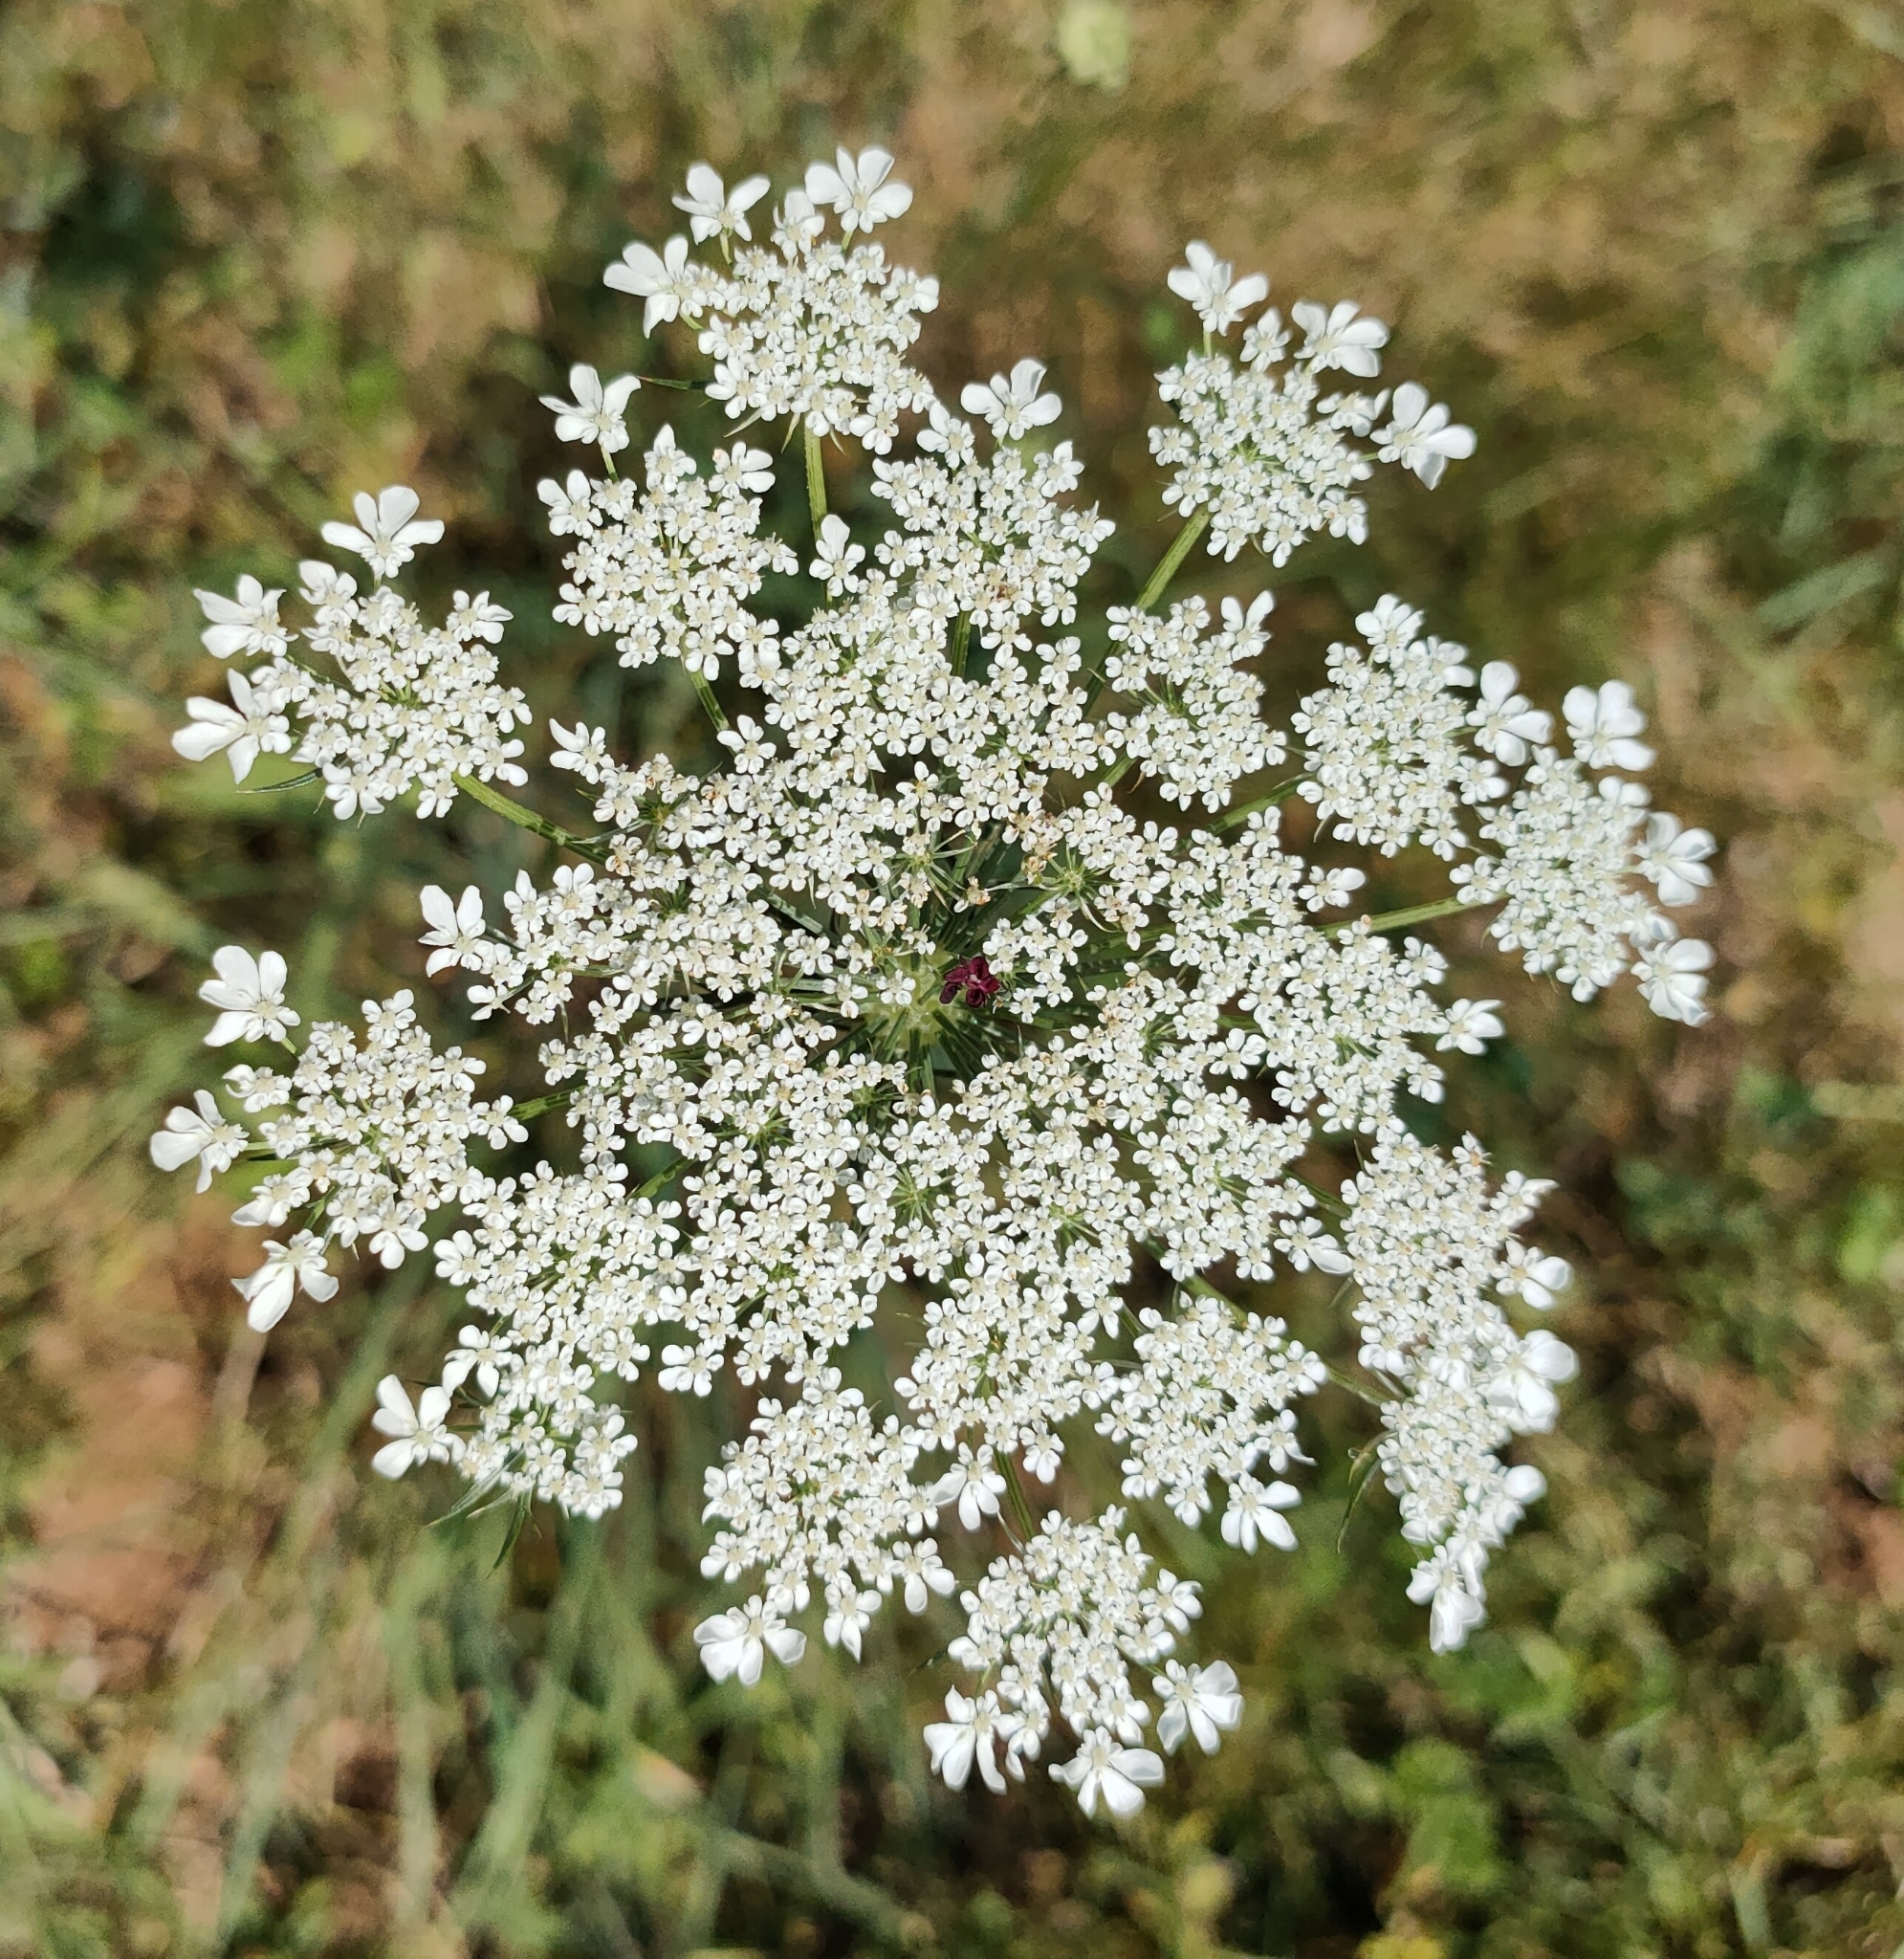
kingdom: Plantae
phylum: Tracheophyta
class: Magnoliopsida
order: Apiales
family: Apiaceae
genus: Daucus
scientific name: Daucus carota
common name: Wild carrot
